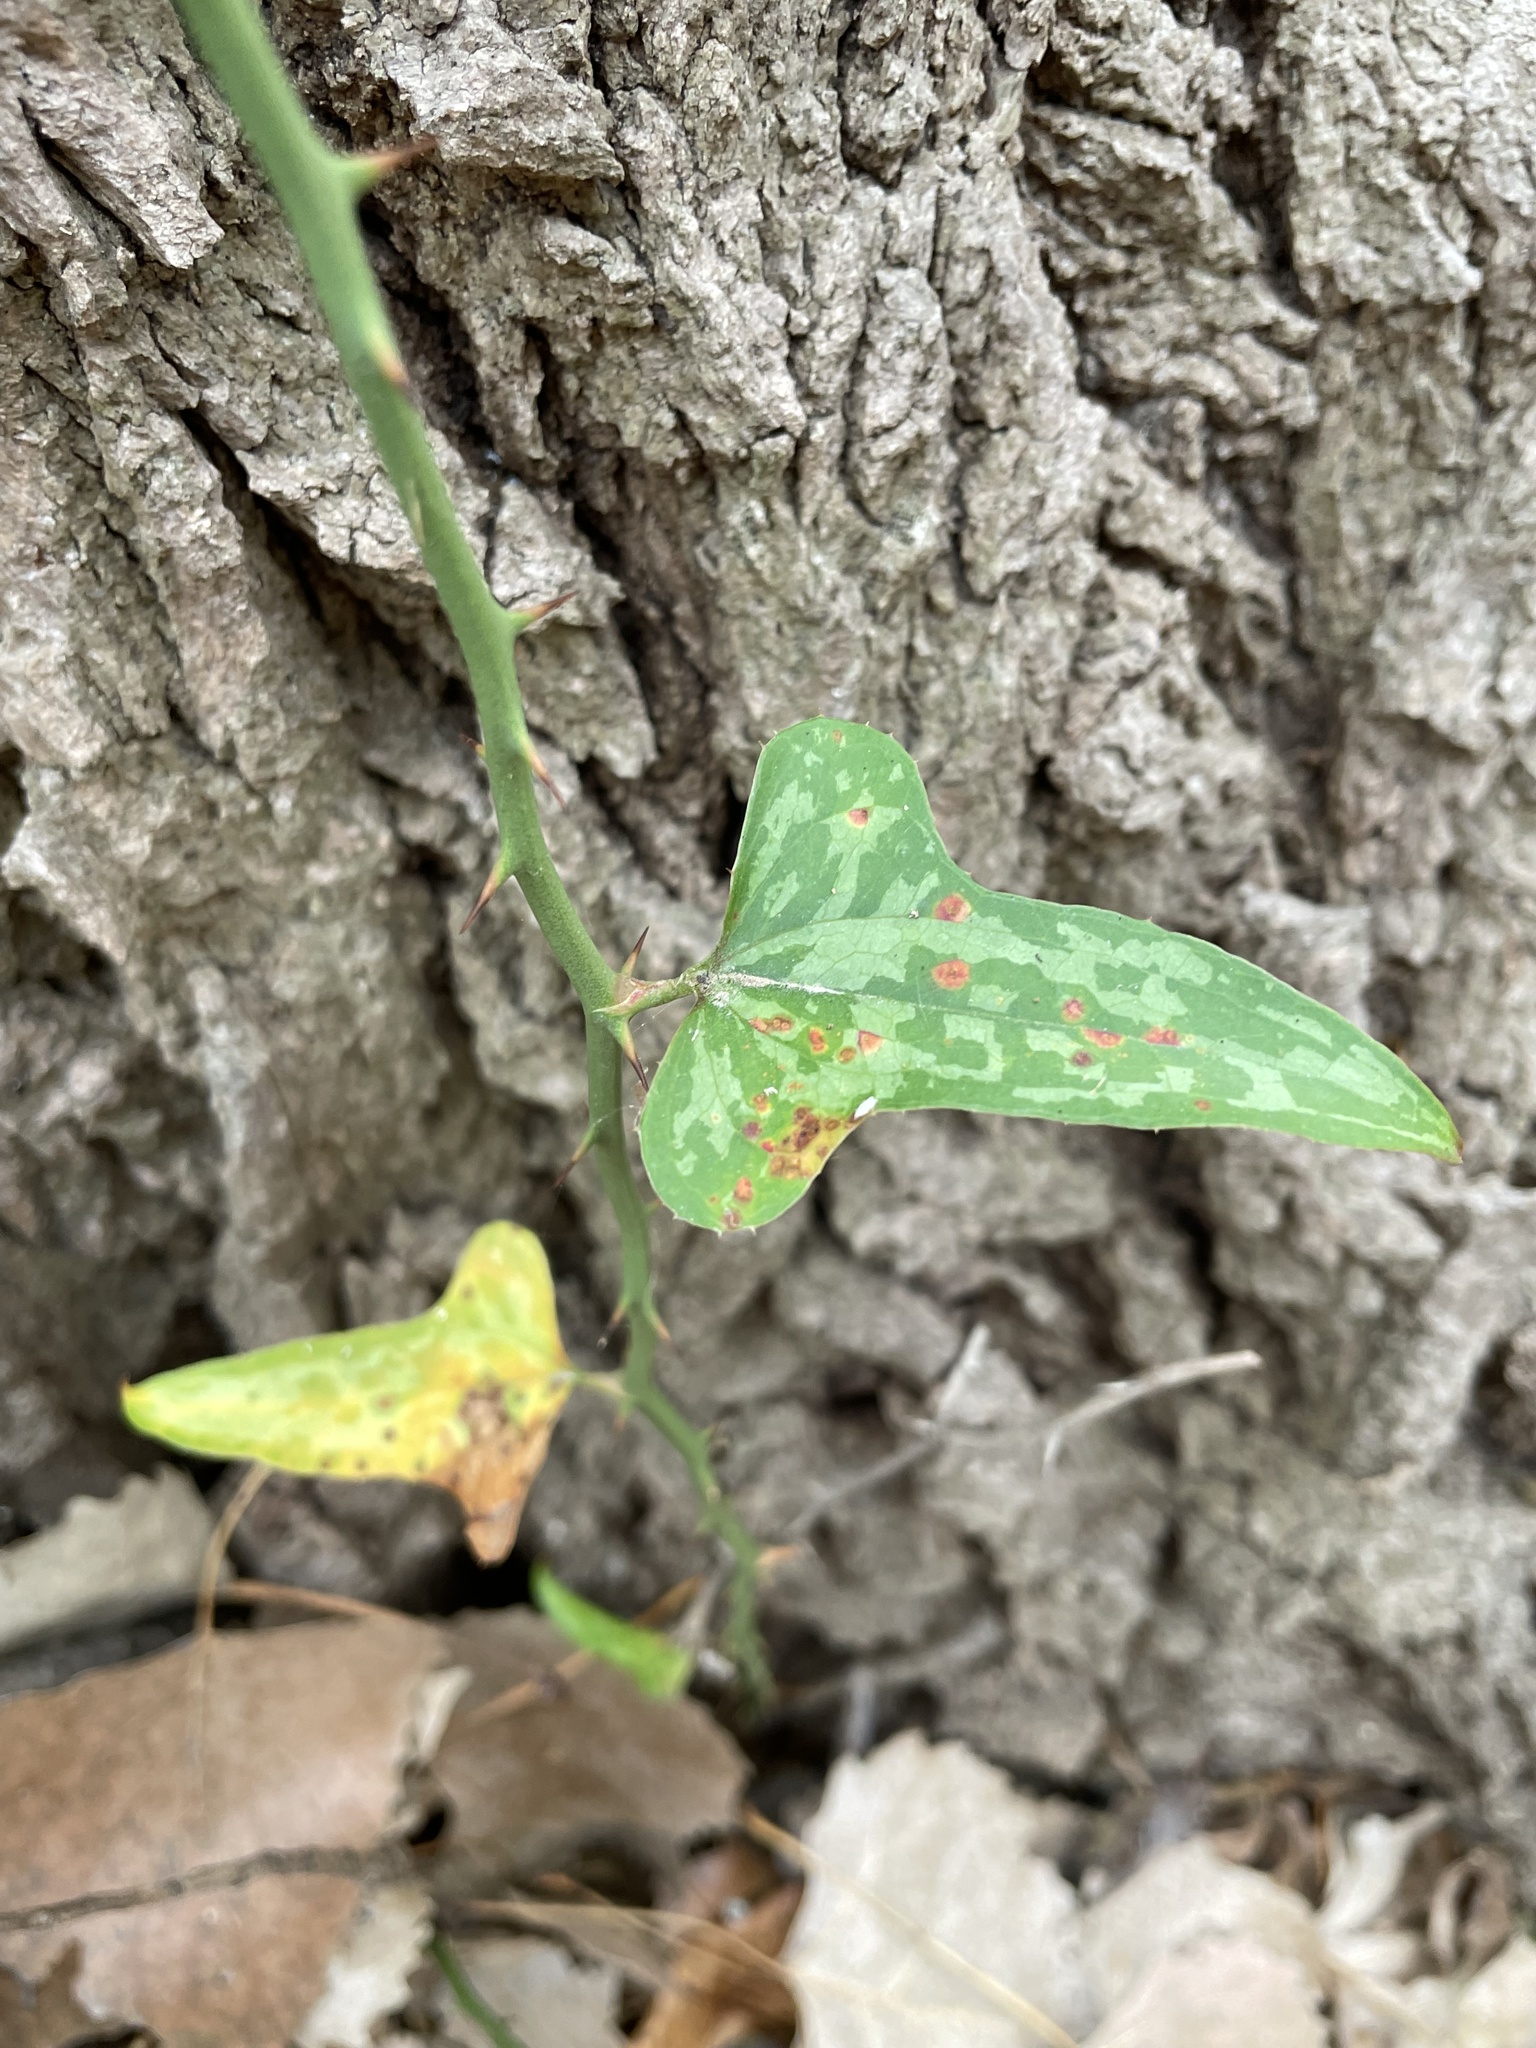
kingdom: Plantae
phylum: Tracheophyta
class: Liliopsida
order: Liliales
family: Smilacaceae
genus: Smilax
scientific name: Smilax bona-nox
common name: Catbrier
